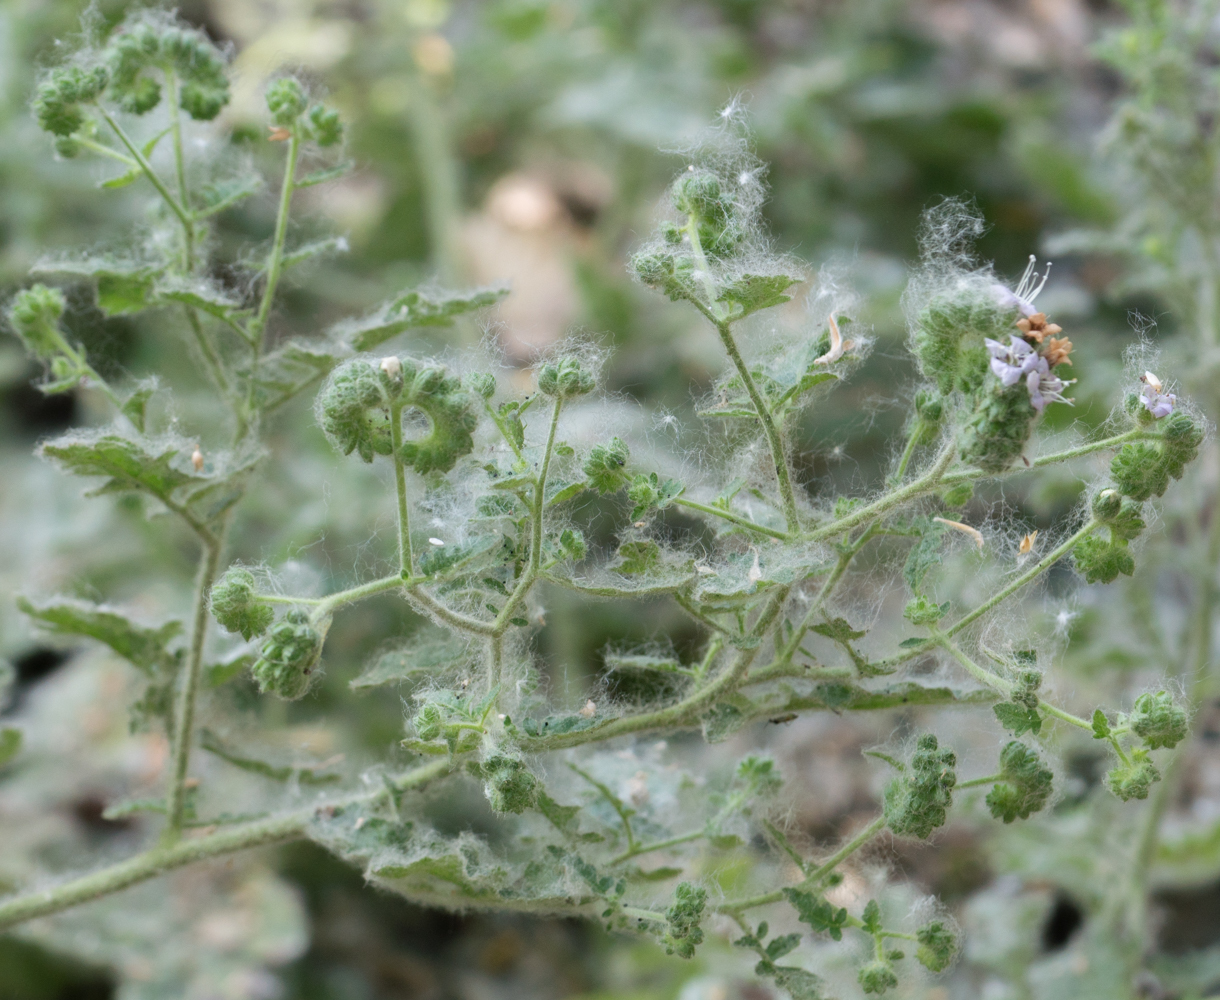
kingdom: Plantae
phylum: Tracheophyta
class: Magnoliopsida
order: Boraginales
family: Hydrophyllaceae
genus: Phacelia
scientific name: Phacelia ramosissima
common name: Branching phacelia
